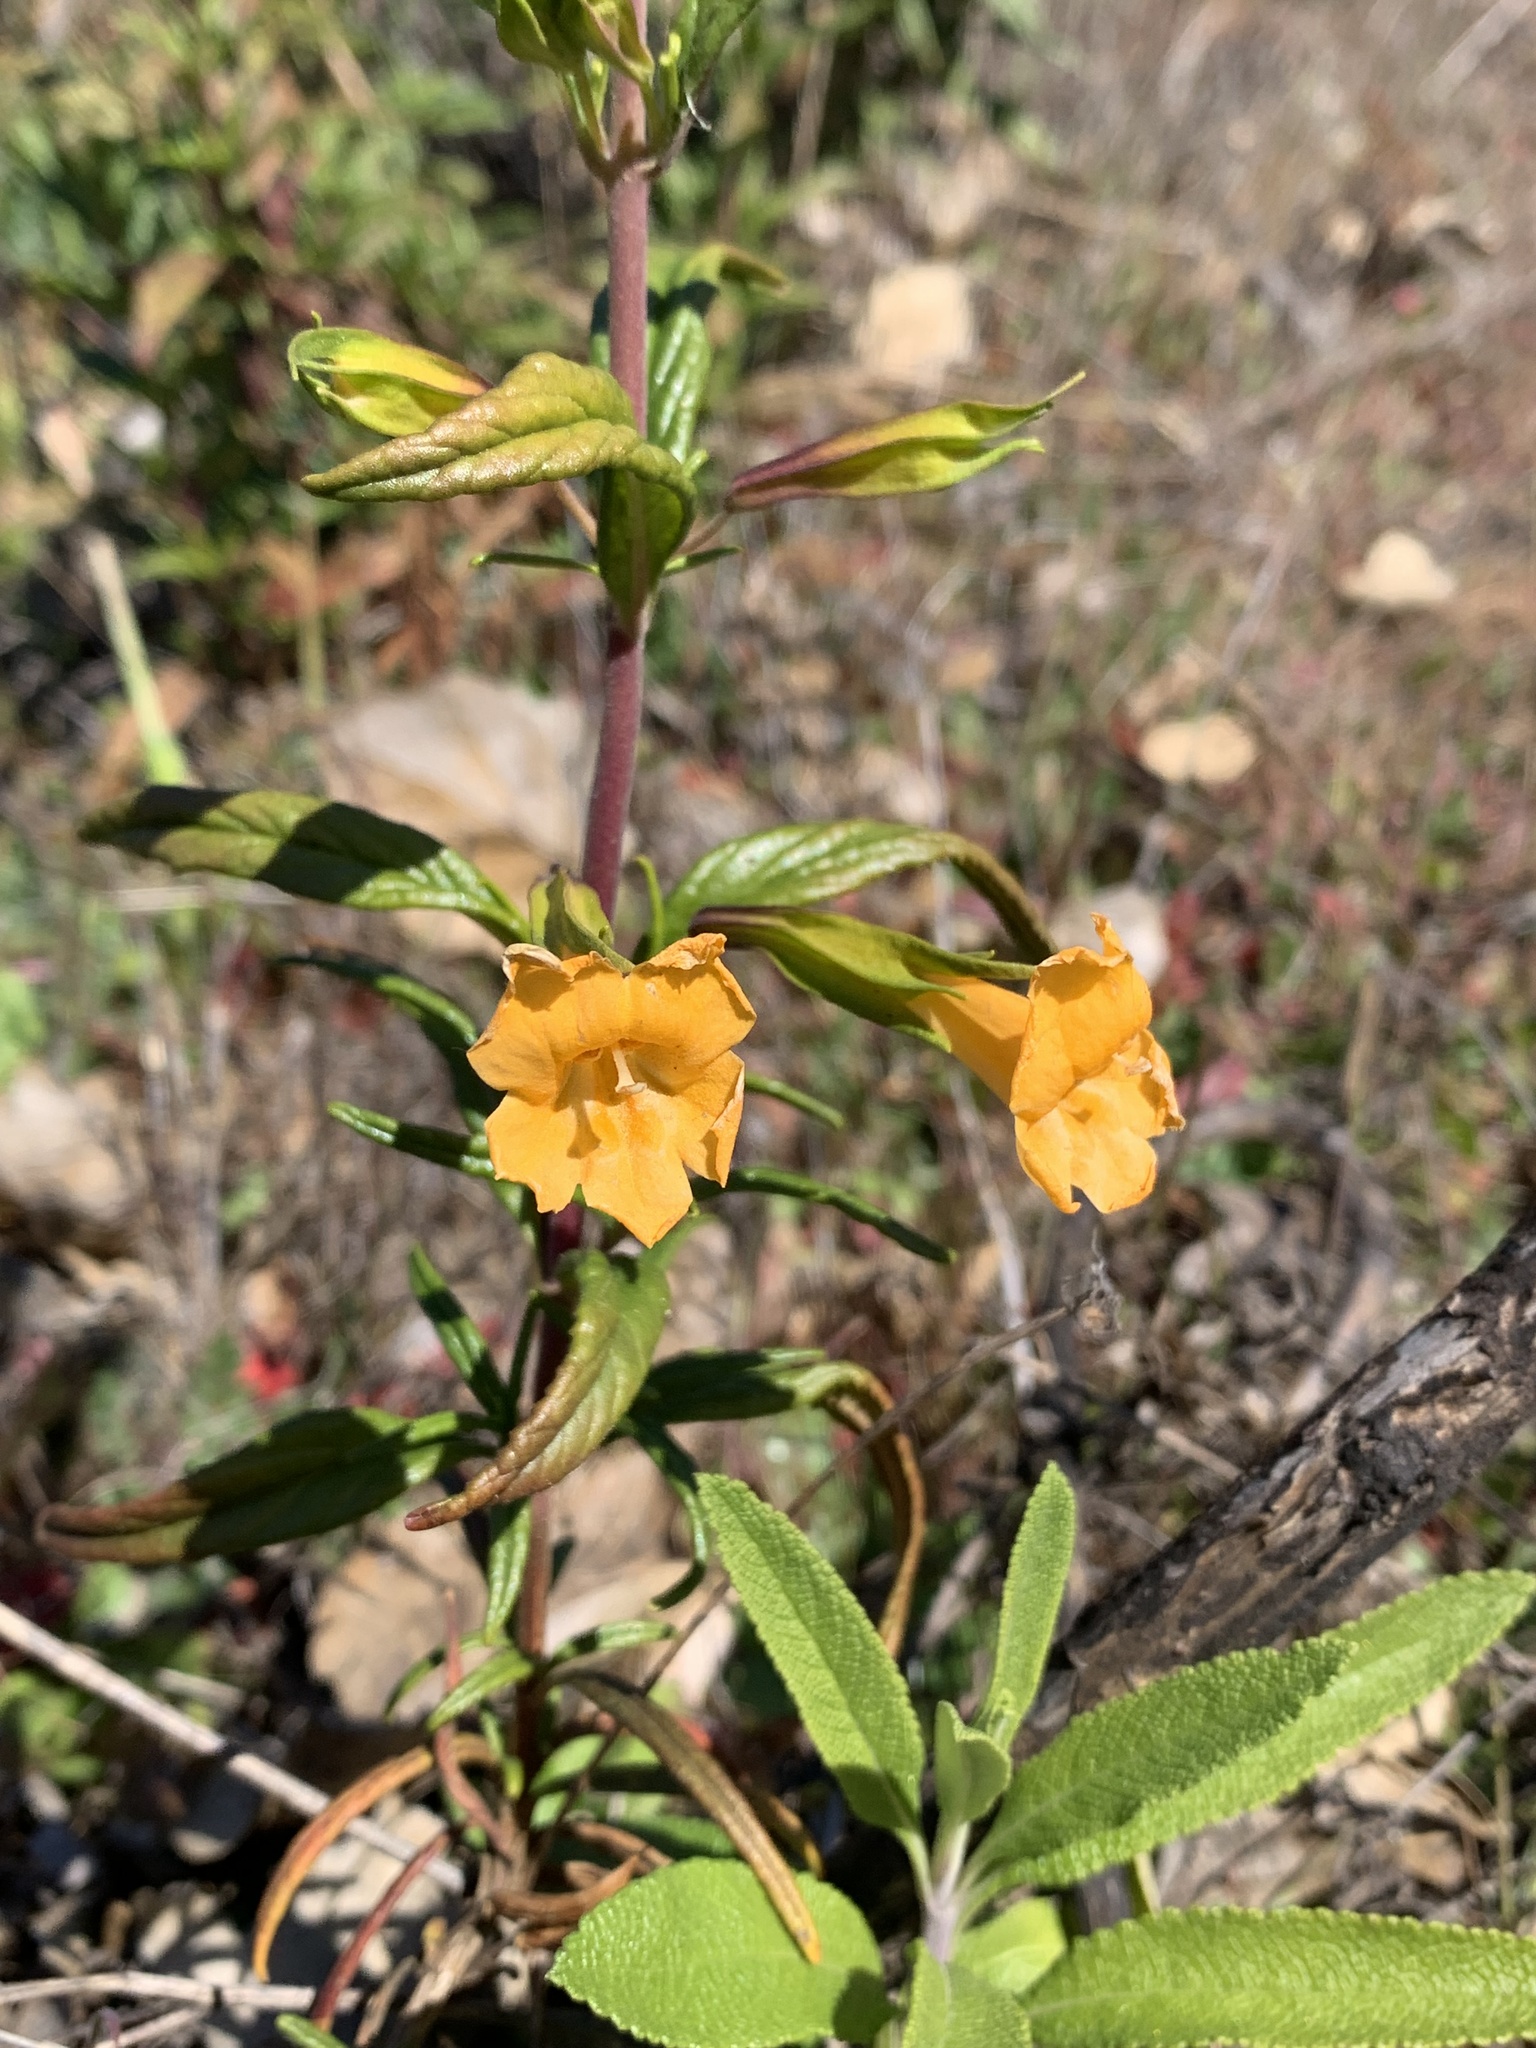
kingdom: Plantae
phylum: Tracheophyta
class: Magnoliopsida
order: Lamiales
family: Phrymaceae
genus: Diplacus
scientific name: Diplacus aurantiacus
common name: Bush monkey-flower
